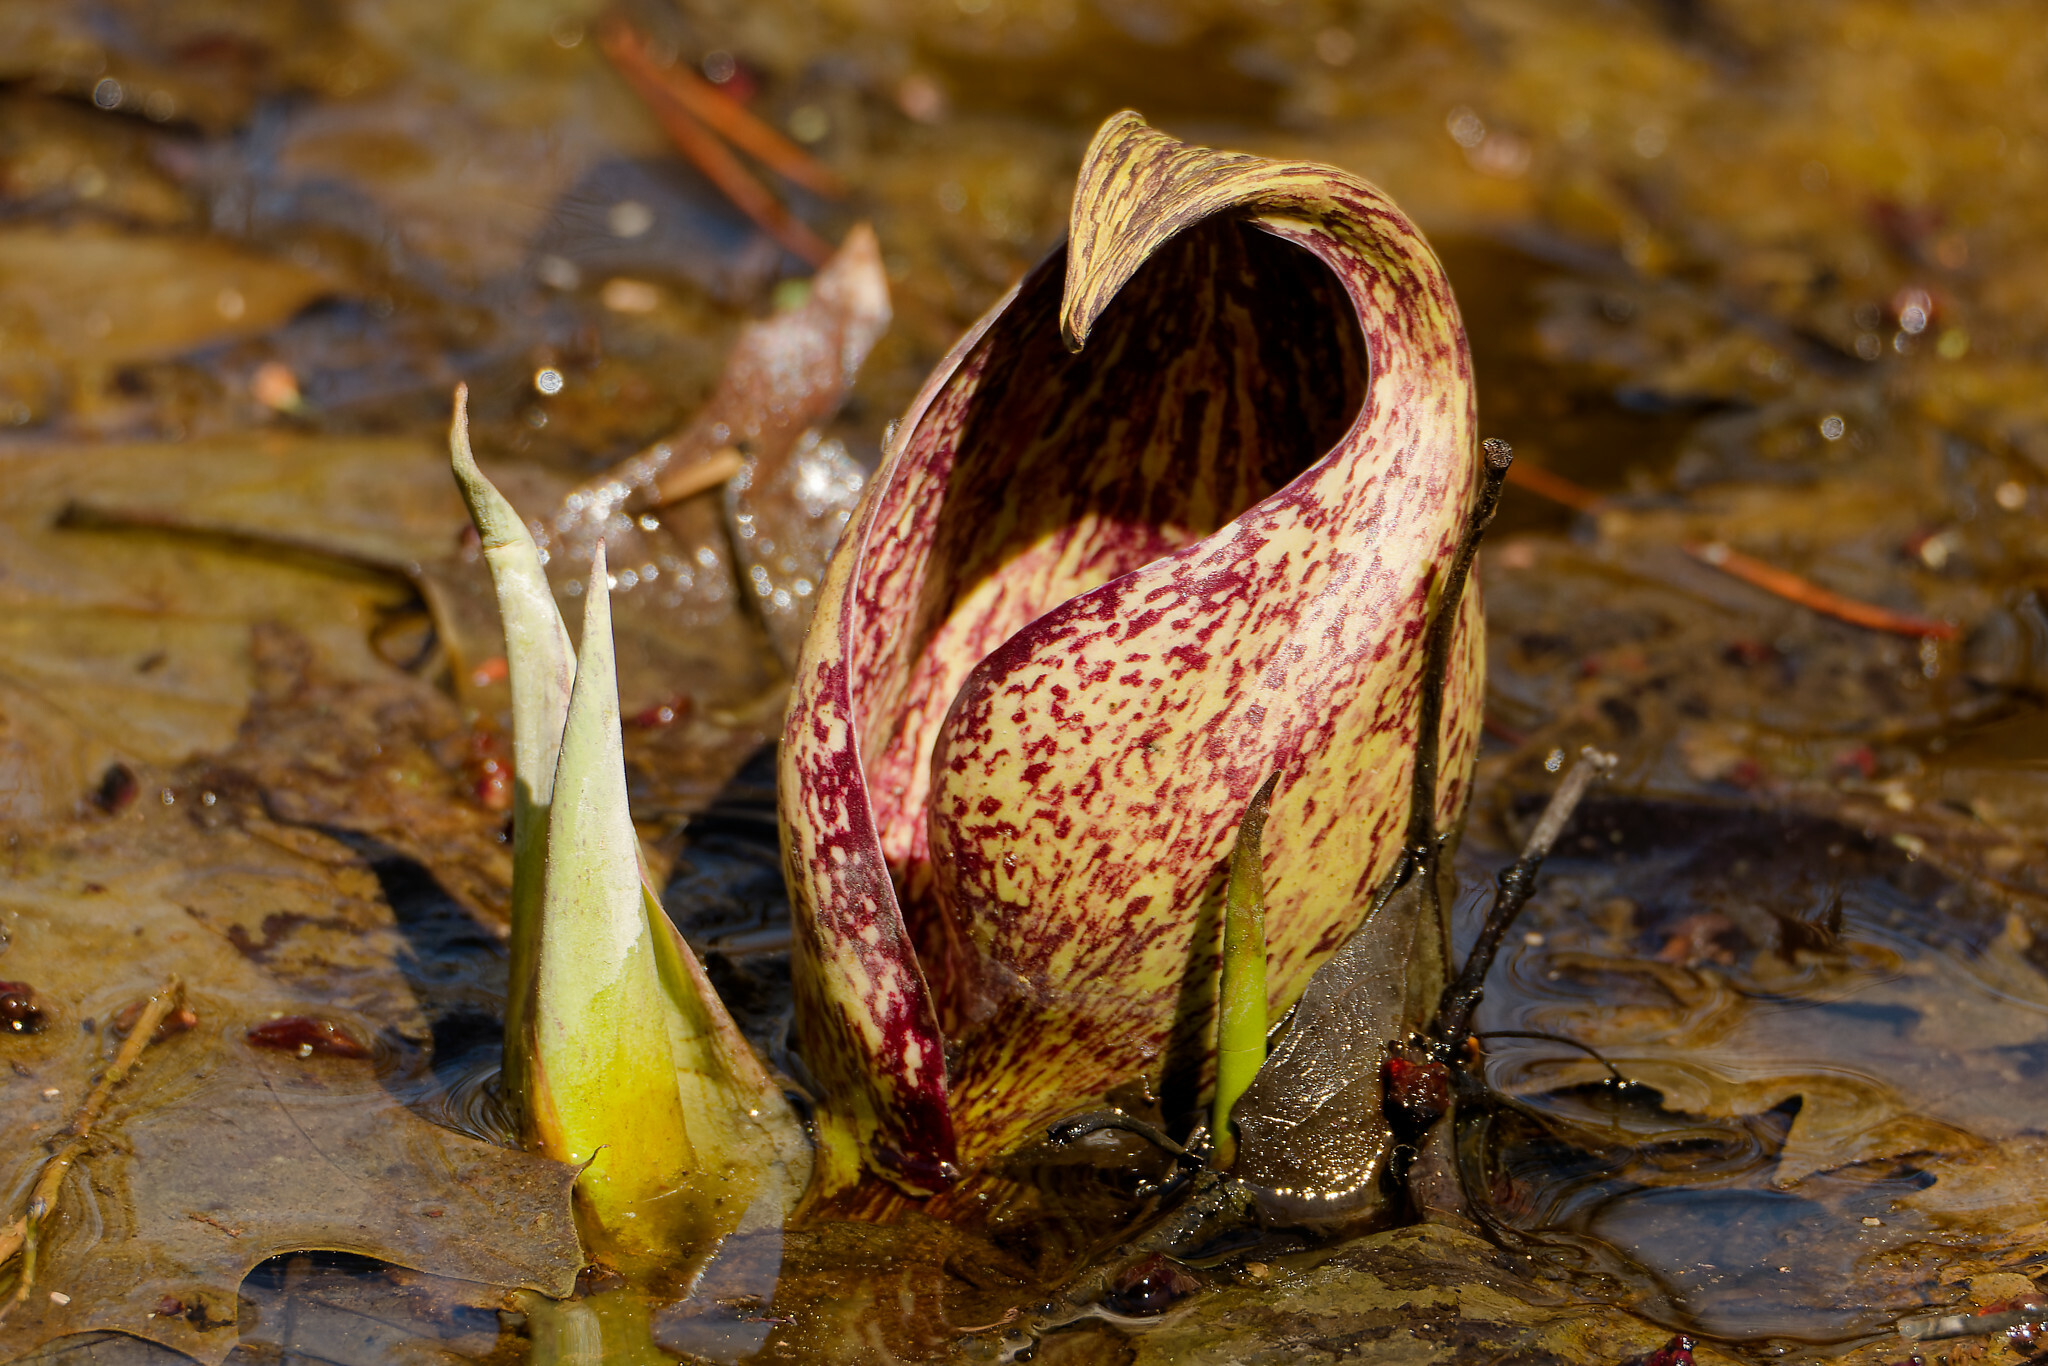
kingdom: Plantae
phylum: Tracheophyta
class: Liliopsida
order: Alismatales
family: Araceae
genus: Symplocarpus
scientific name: Symplocarpus foetidus
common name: Eastern skunk cabbage
